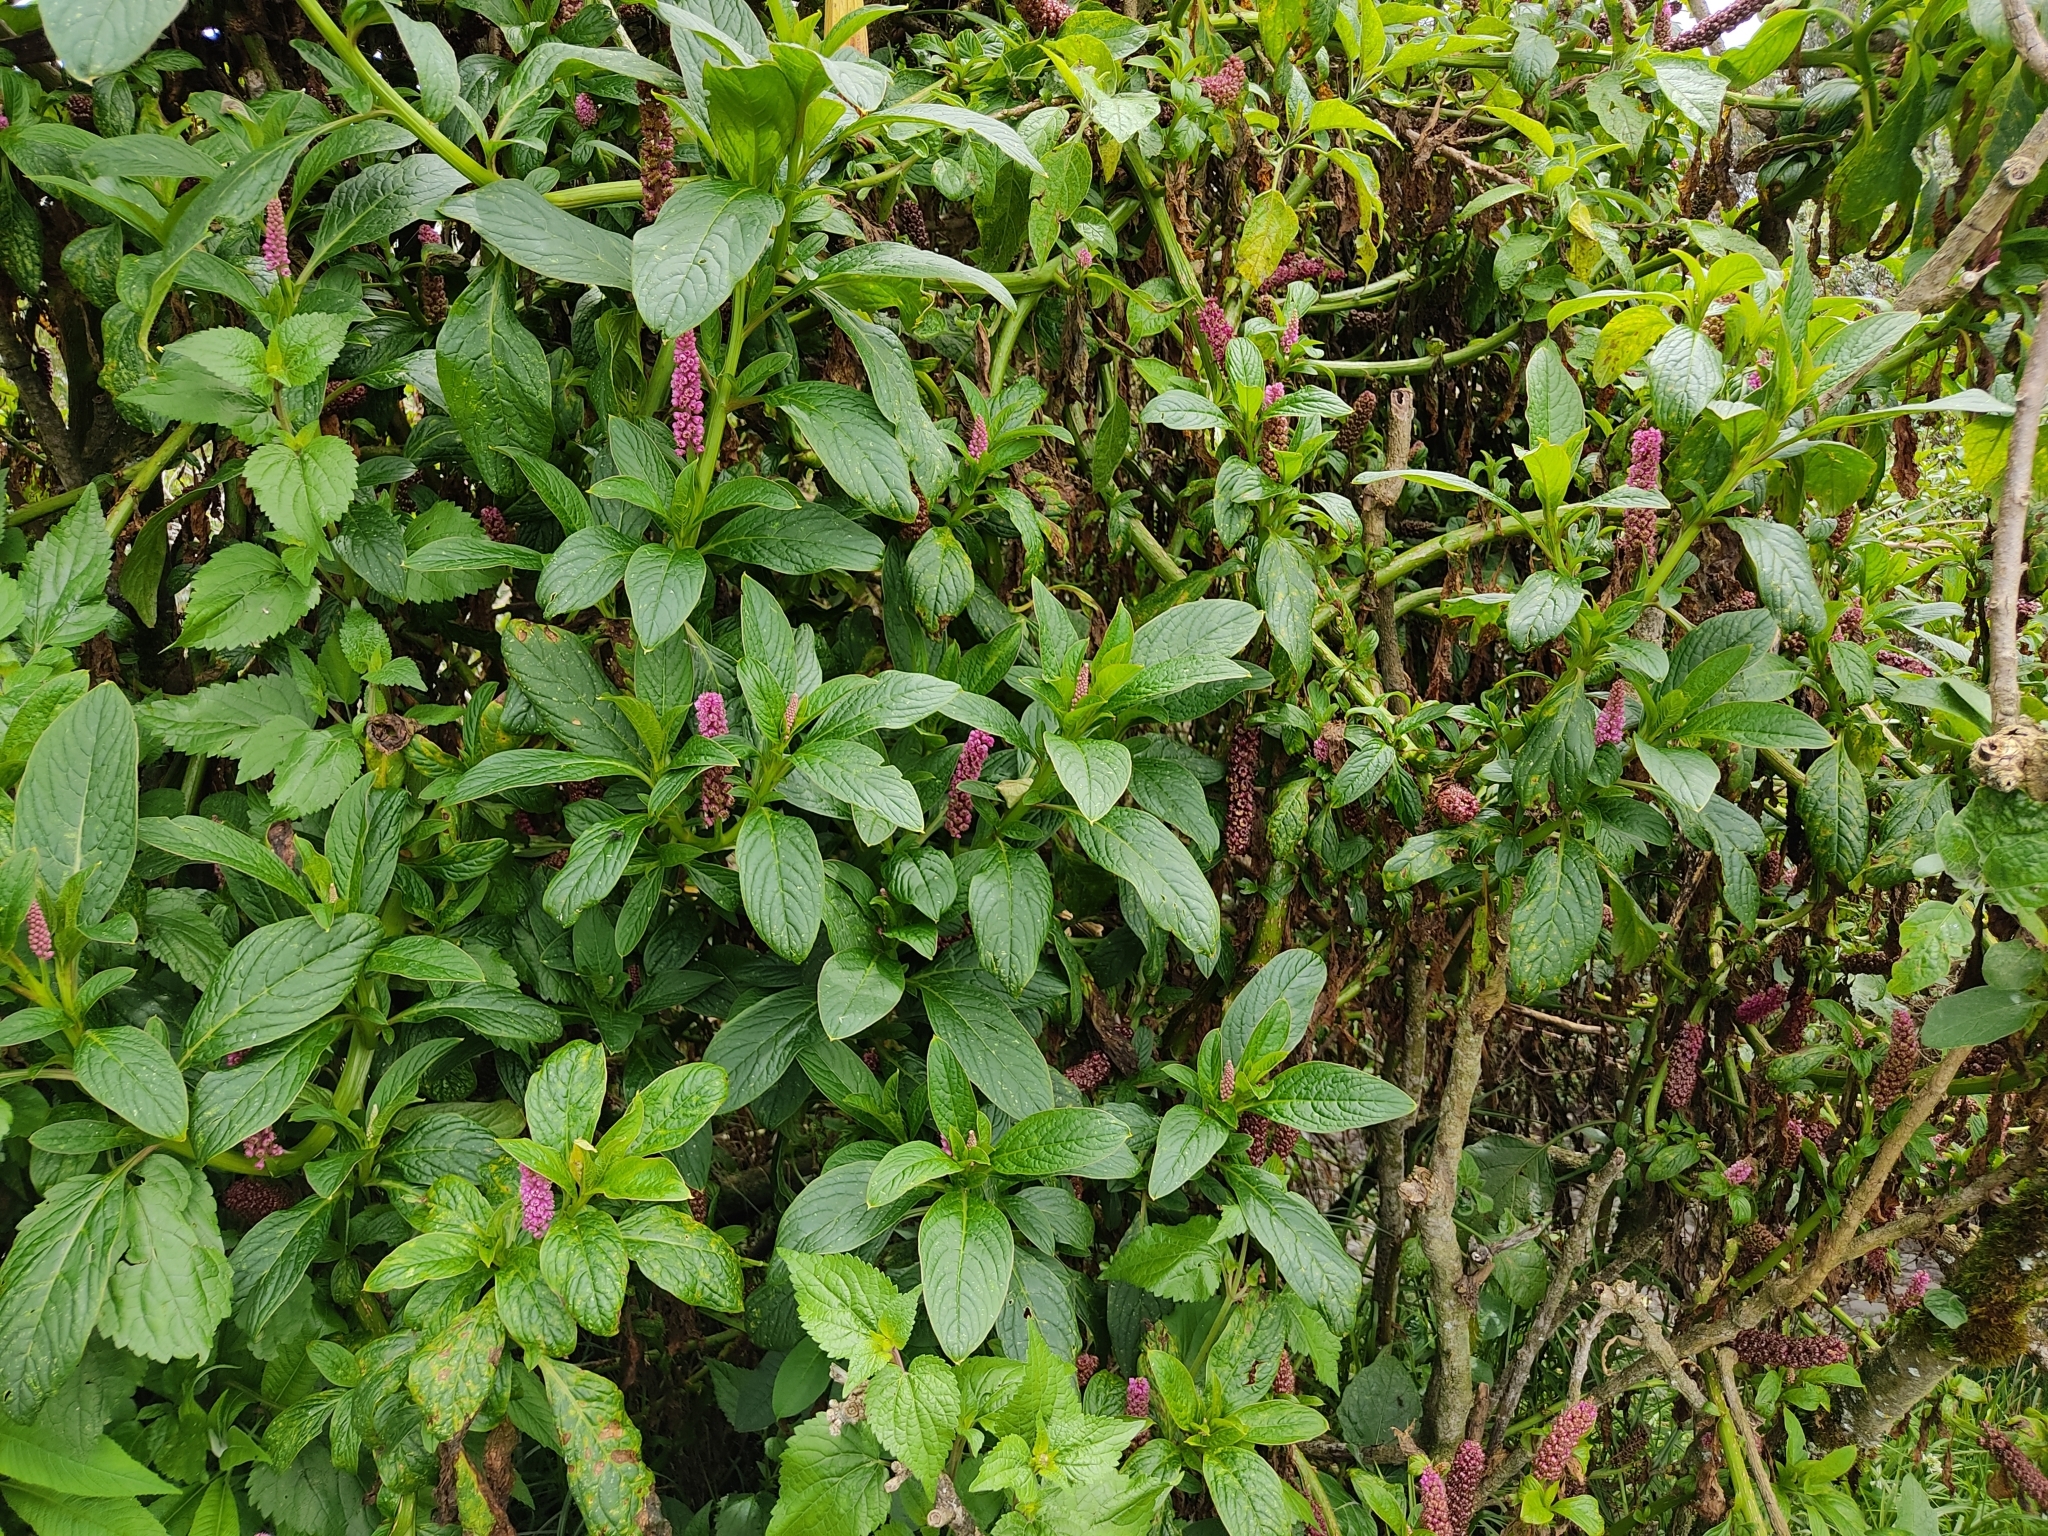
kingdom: Plantae
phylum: Tracheophyta
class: Magnoliopsida
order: Caryophyllales
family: Phytolaccaceae
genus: Phytolacca
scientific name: Phytolacca bogotensis
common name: Southern pokeweed
